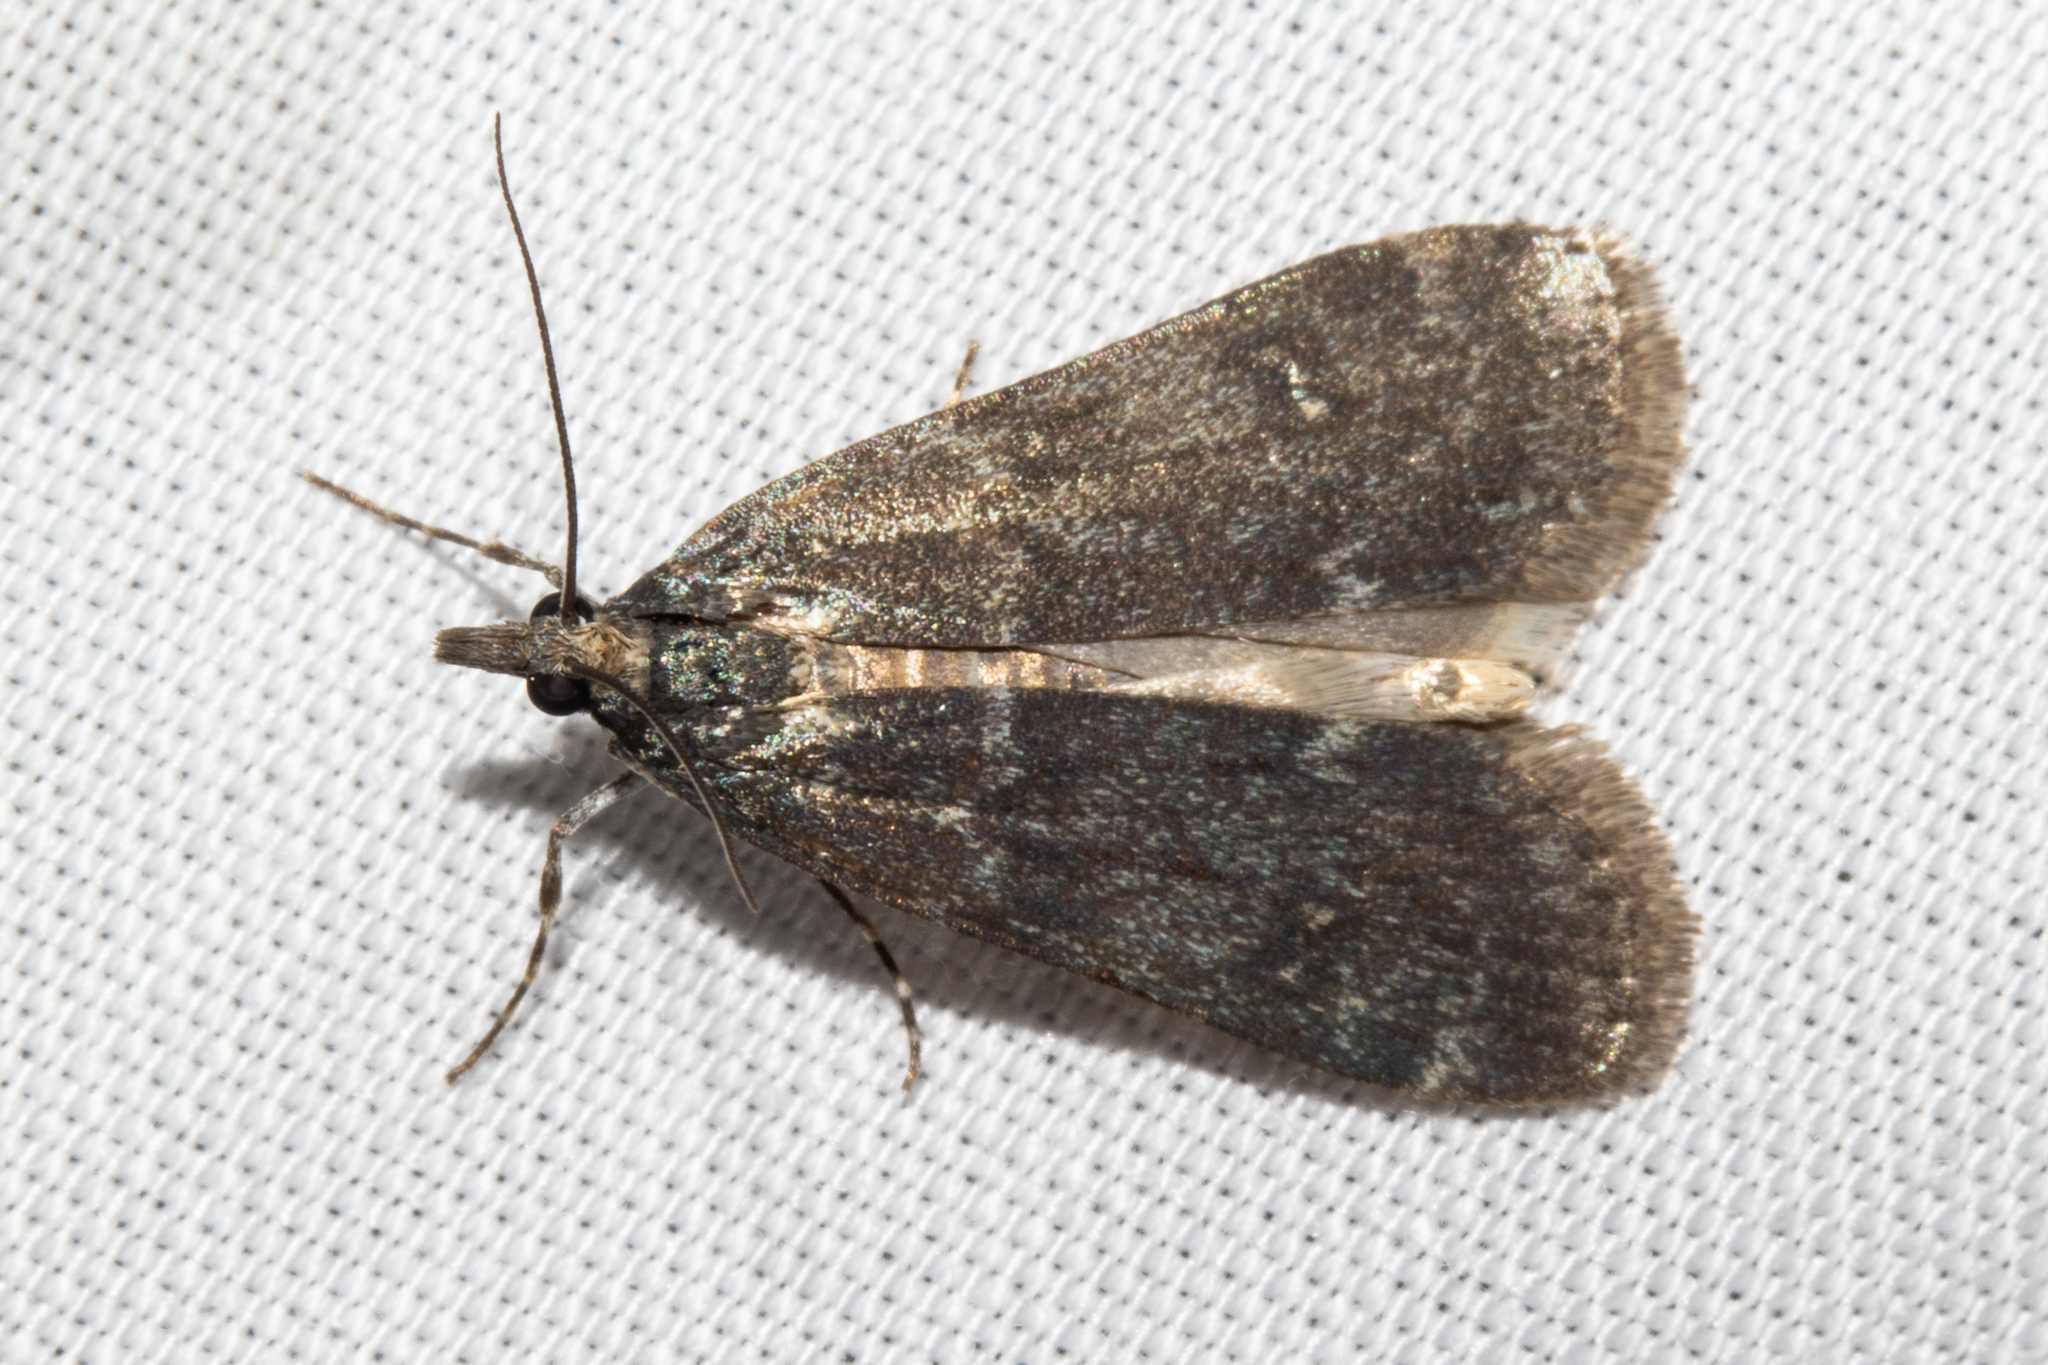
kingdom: Animalia
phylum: Arthropoda
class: Insecta
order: Lepidoptera
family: Crambidae
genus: Eudonia
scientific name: Eudonia cataxesta
